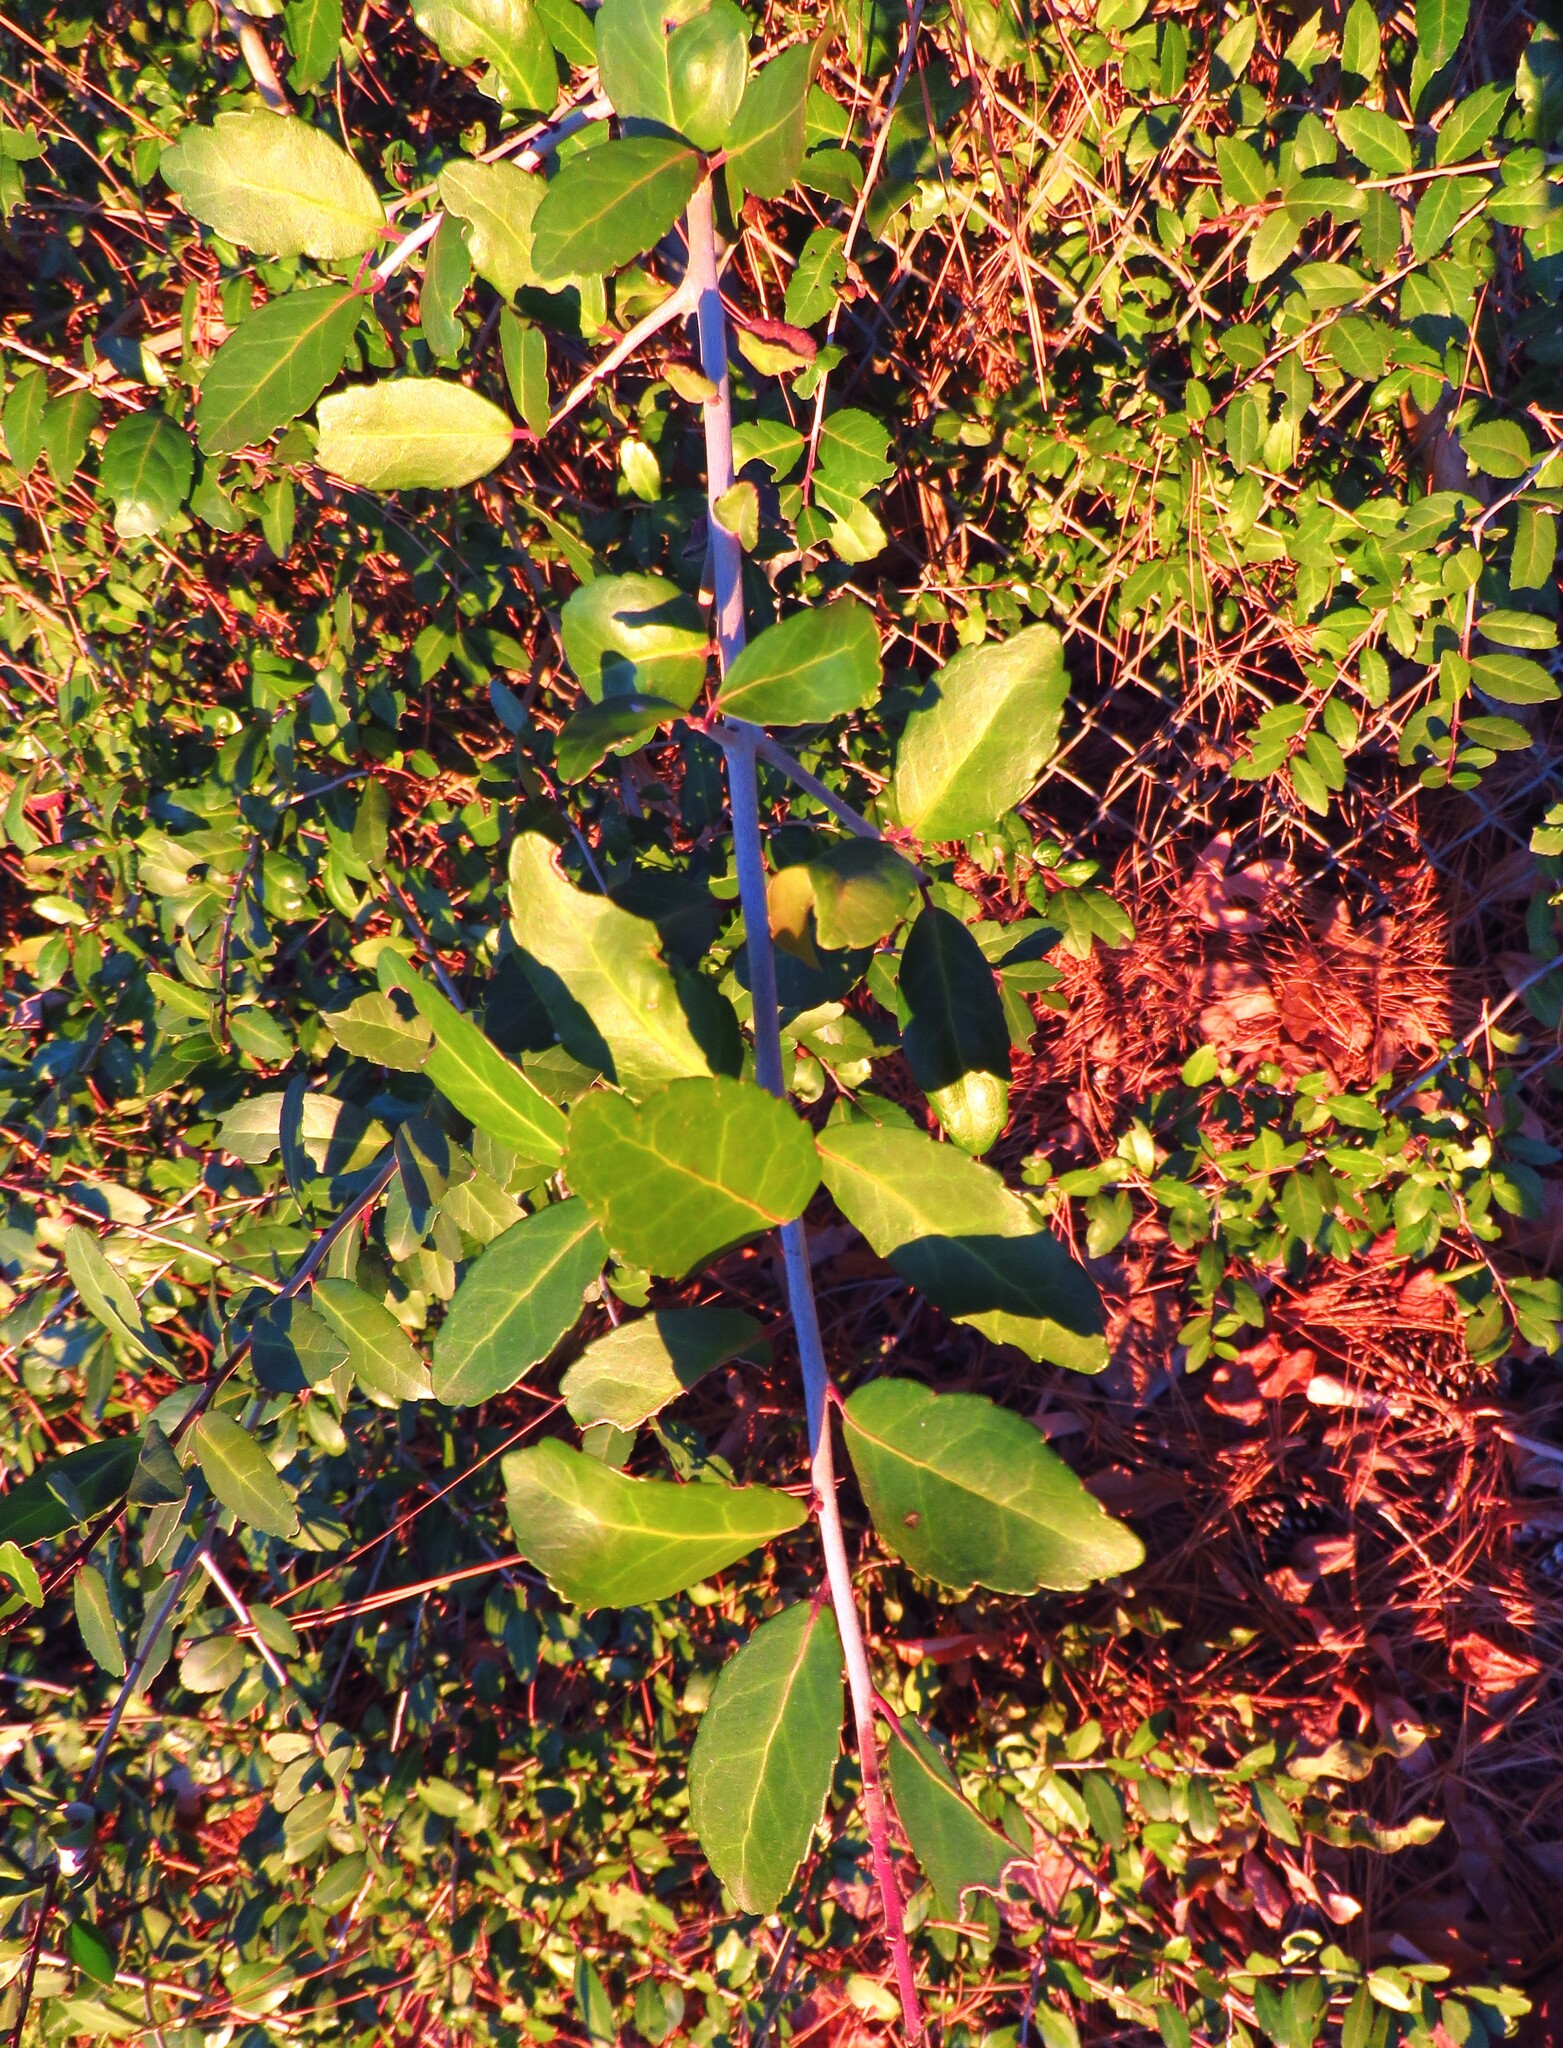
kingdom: Plantae
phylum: Tracheophyta
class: Magnoliopsida
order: Aquifoliales
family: Aquifoliaceae
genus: Ilex
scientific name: Ilex vomitoria
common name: Yaupon holly
